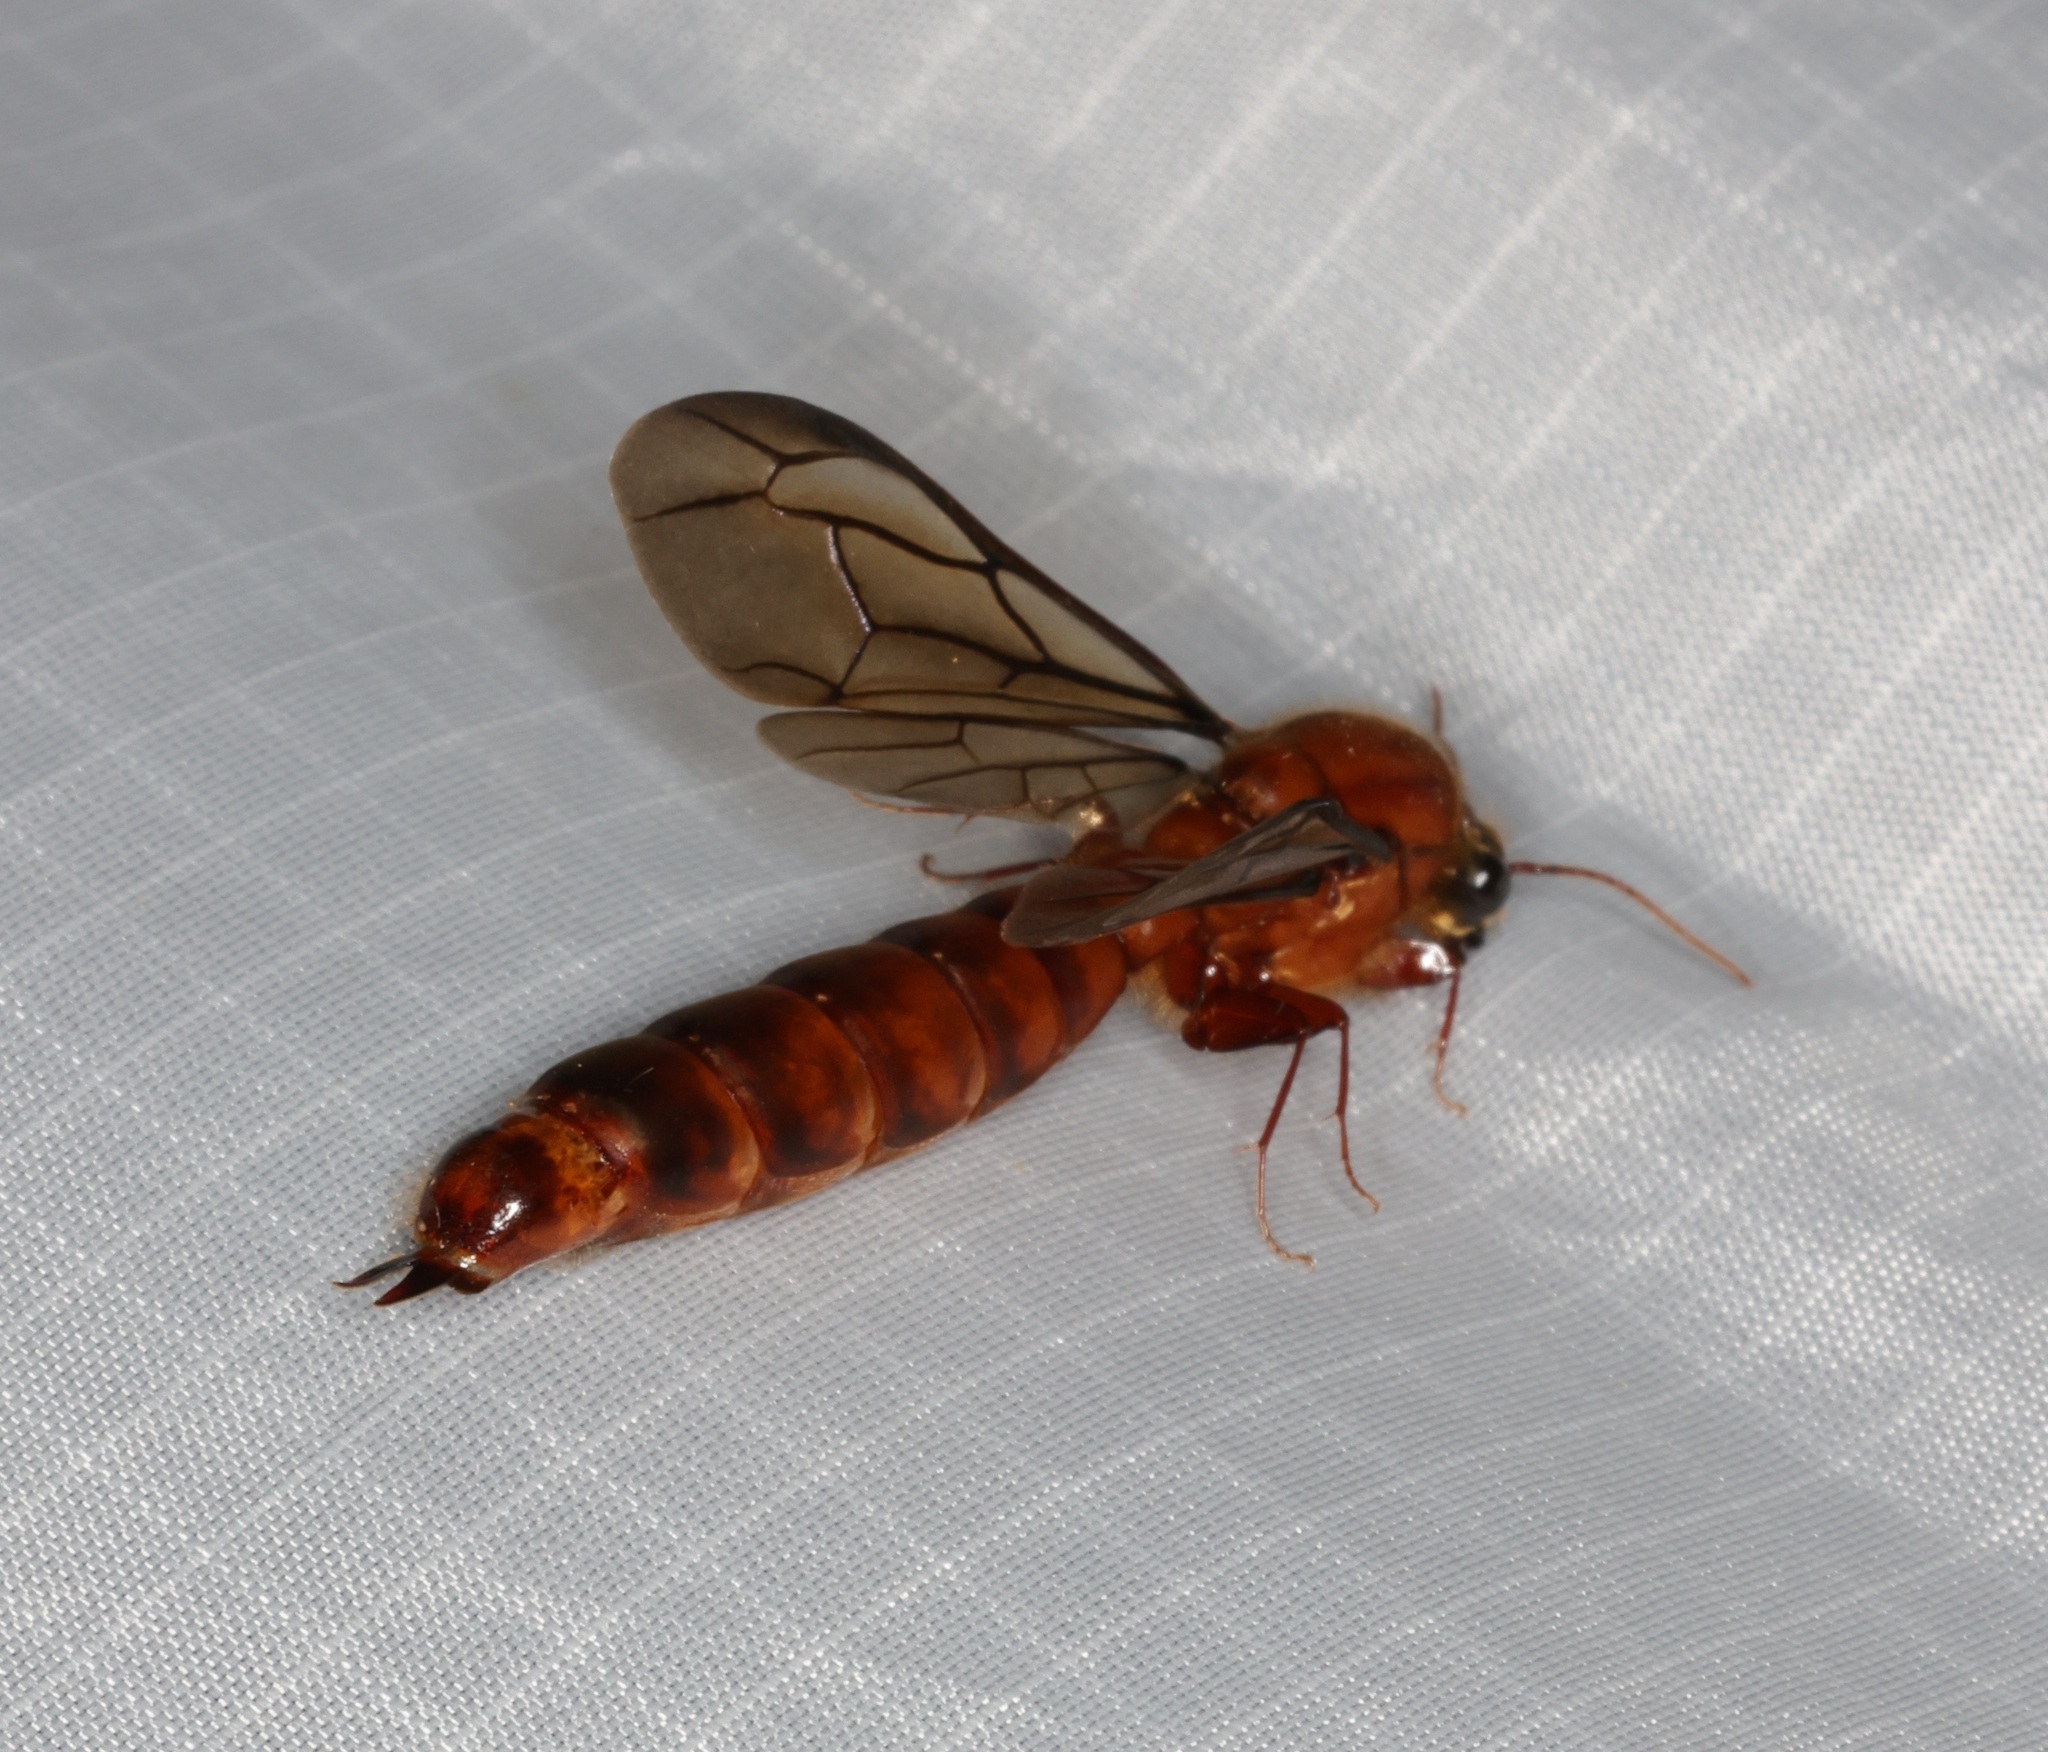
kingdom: Animalia
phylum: Arthropoda
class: Insecta
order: Hymenoptera
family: Formicidae
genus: Dorylus
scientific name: Dorylus orientalis
